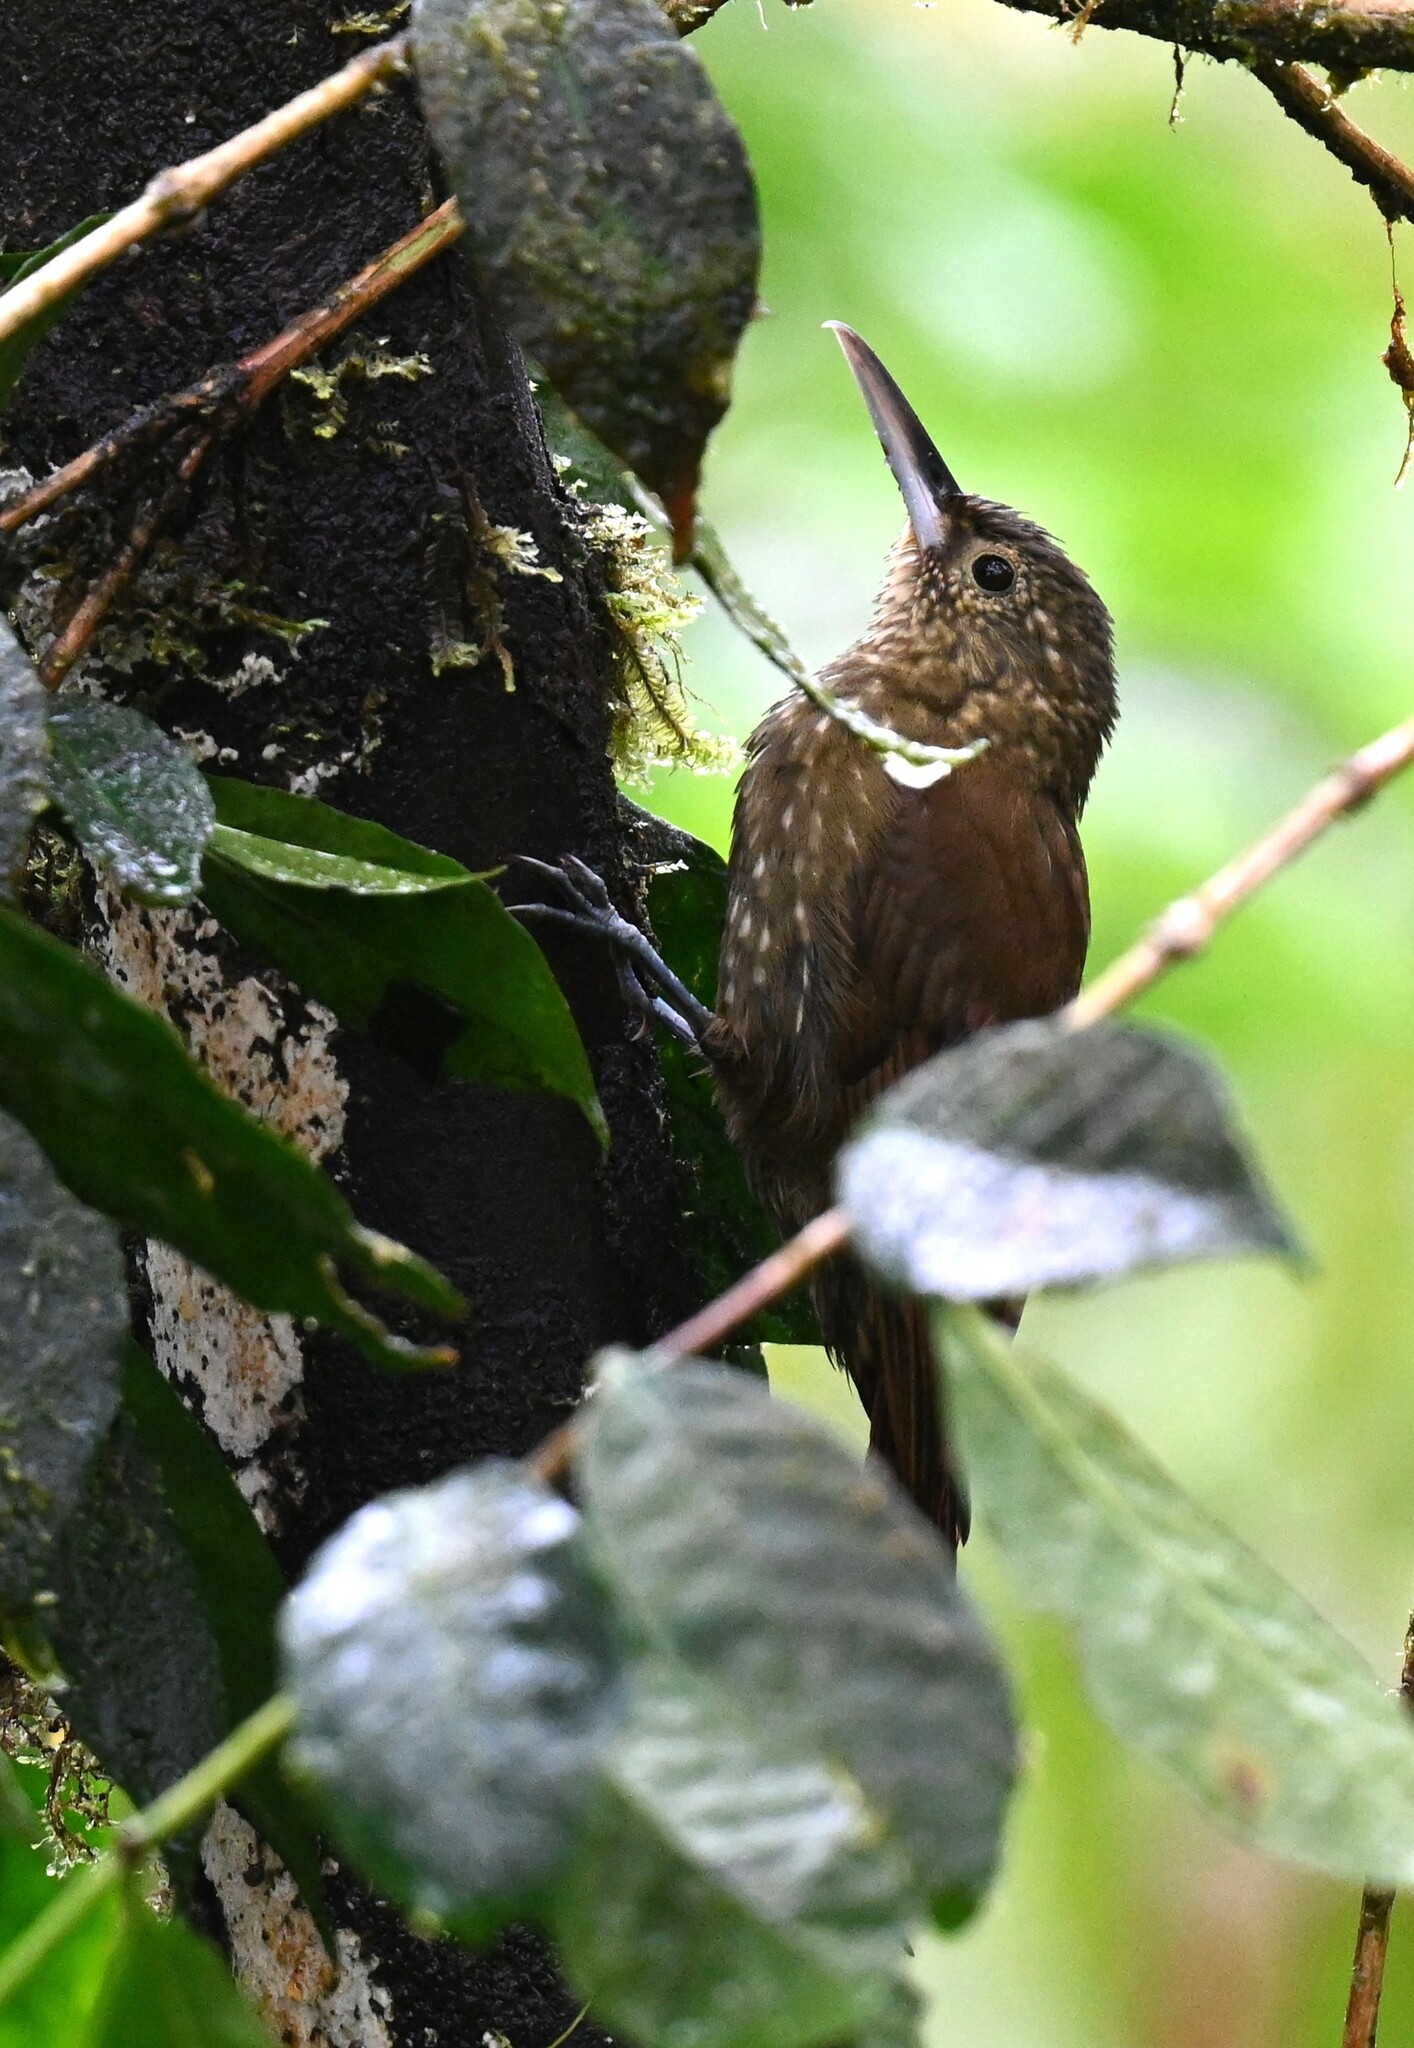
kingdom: Animalia
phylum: Chordata
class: Aves
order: Passeriformes
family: Furnariidae
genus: Xiphorhynchus
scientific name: Xiphorhynchus erythropygius
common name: Spotted woodcreeper
